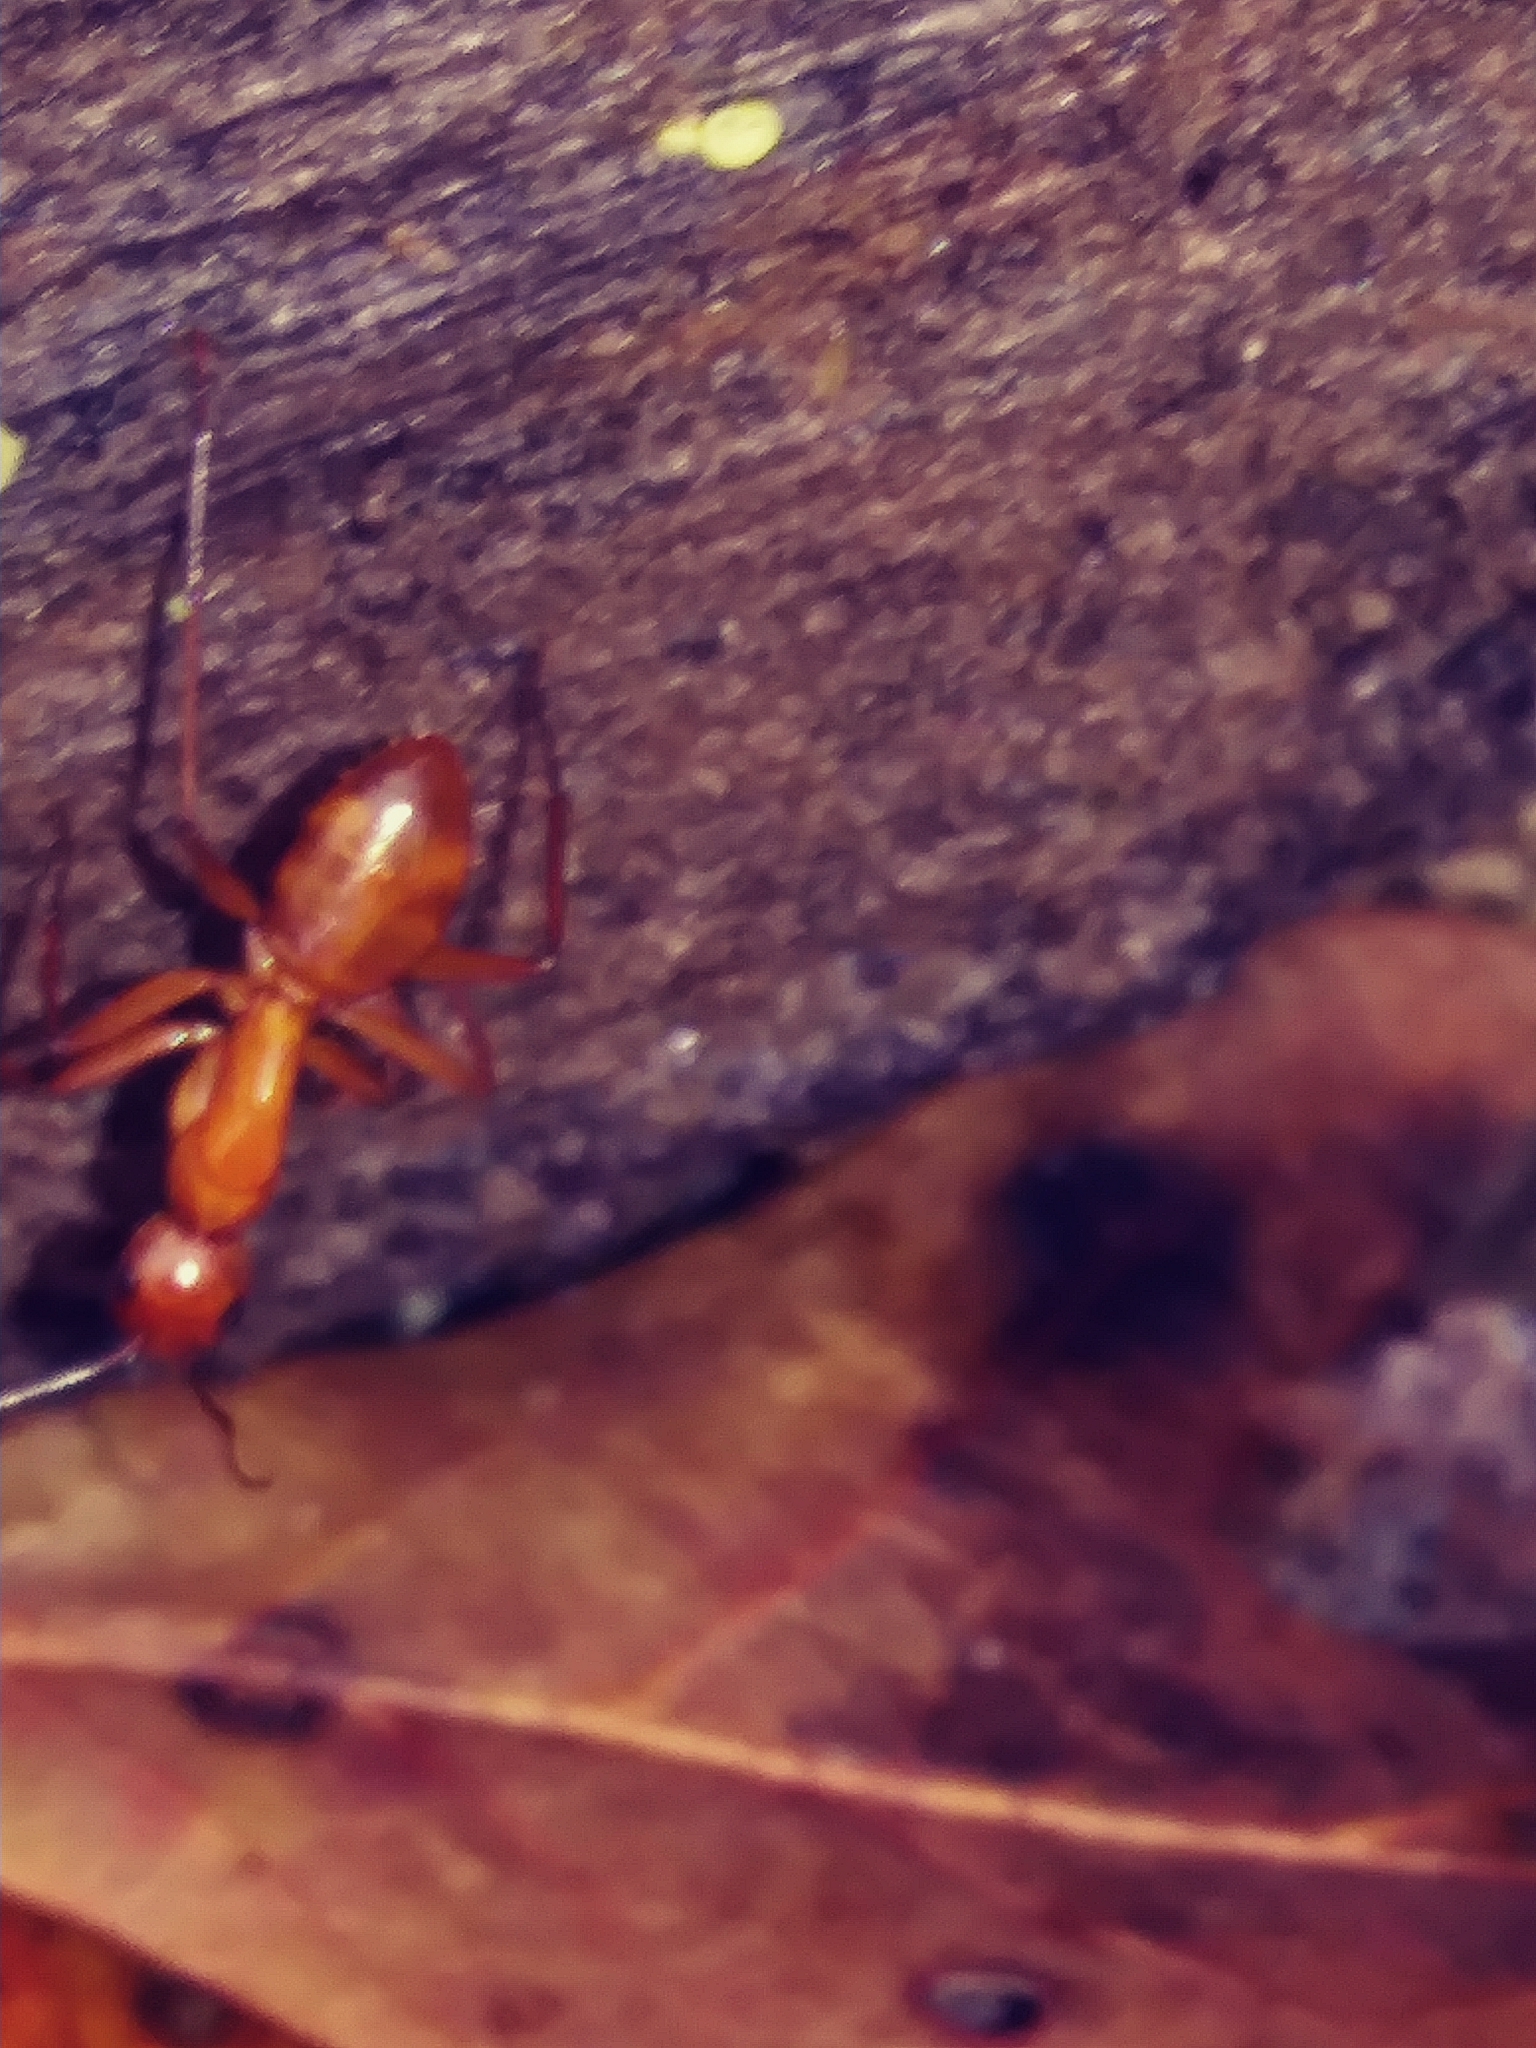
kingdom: Animalia
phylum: Arthropoda
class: Insecta
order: Hymenoptera
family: Formicidae
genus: Camponotus
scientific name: Camponotus castaneus
